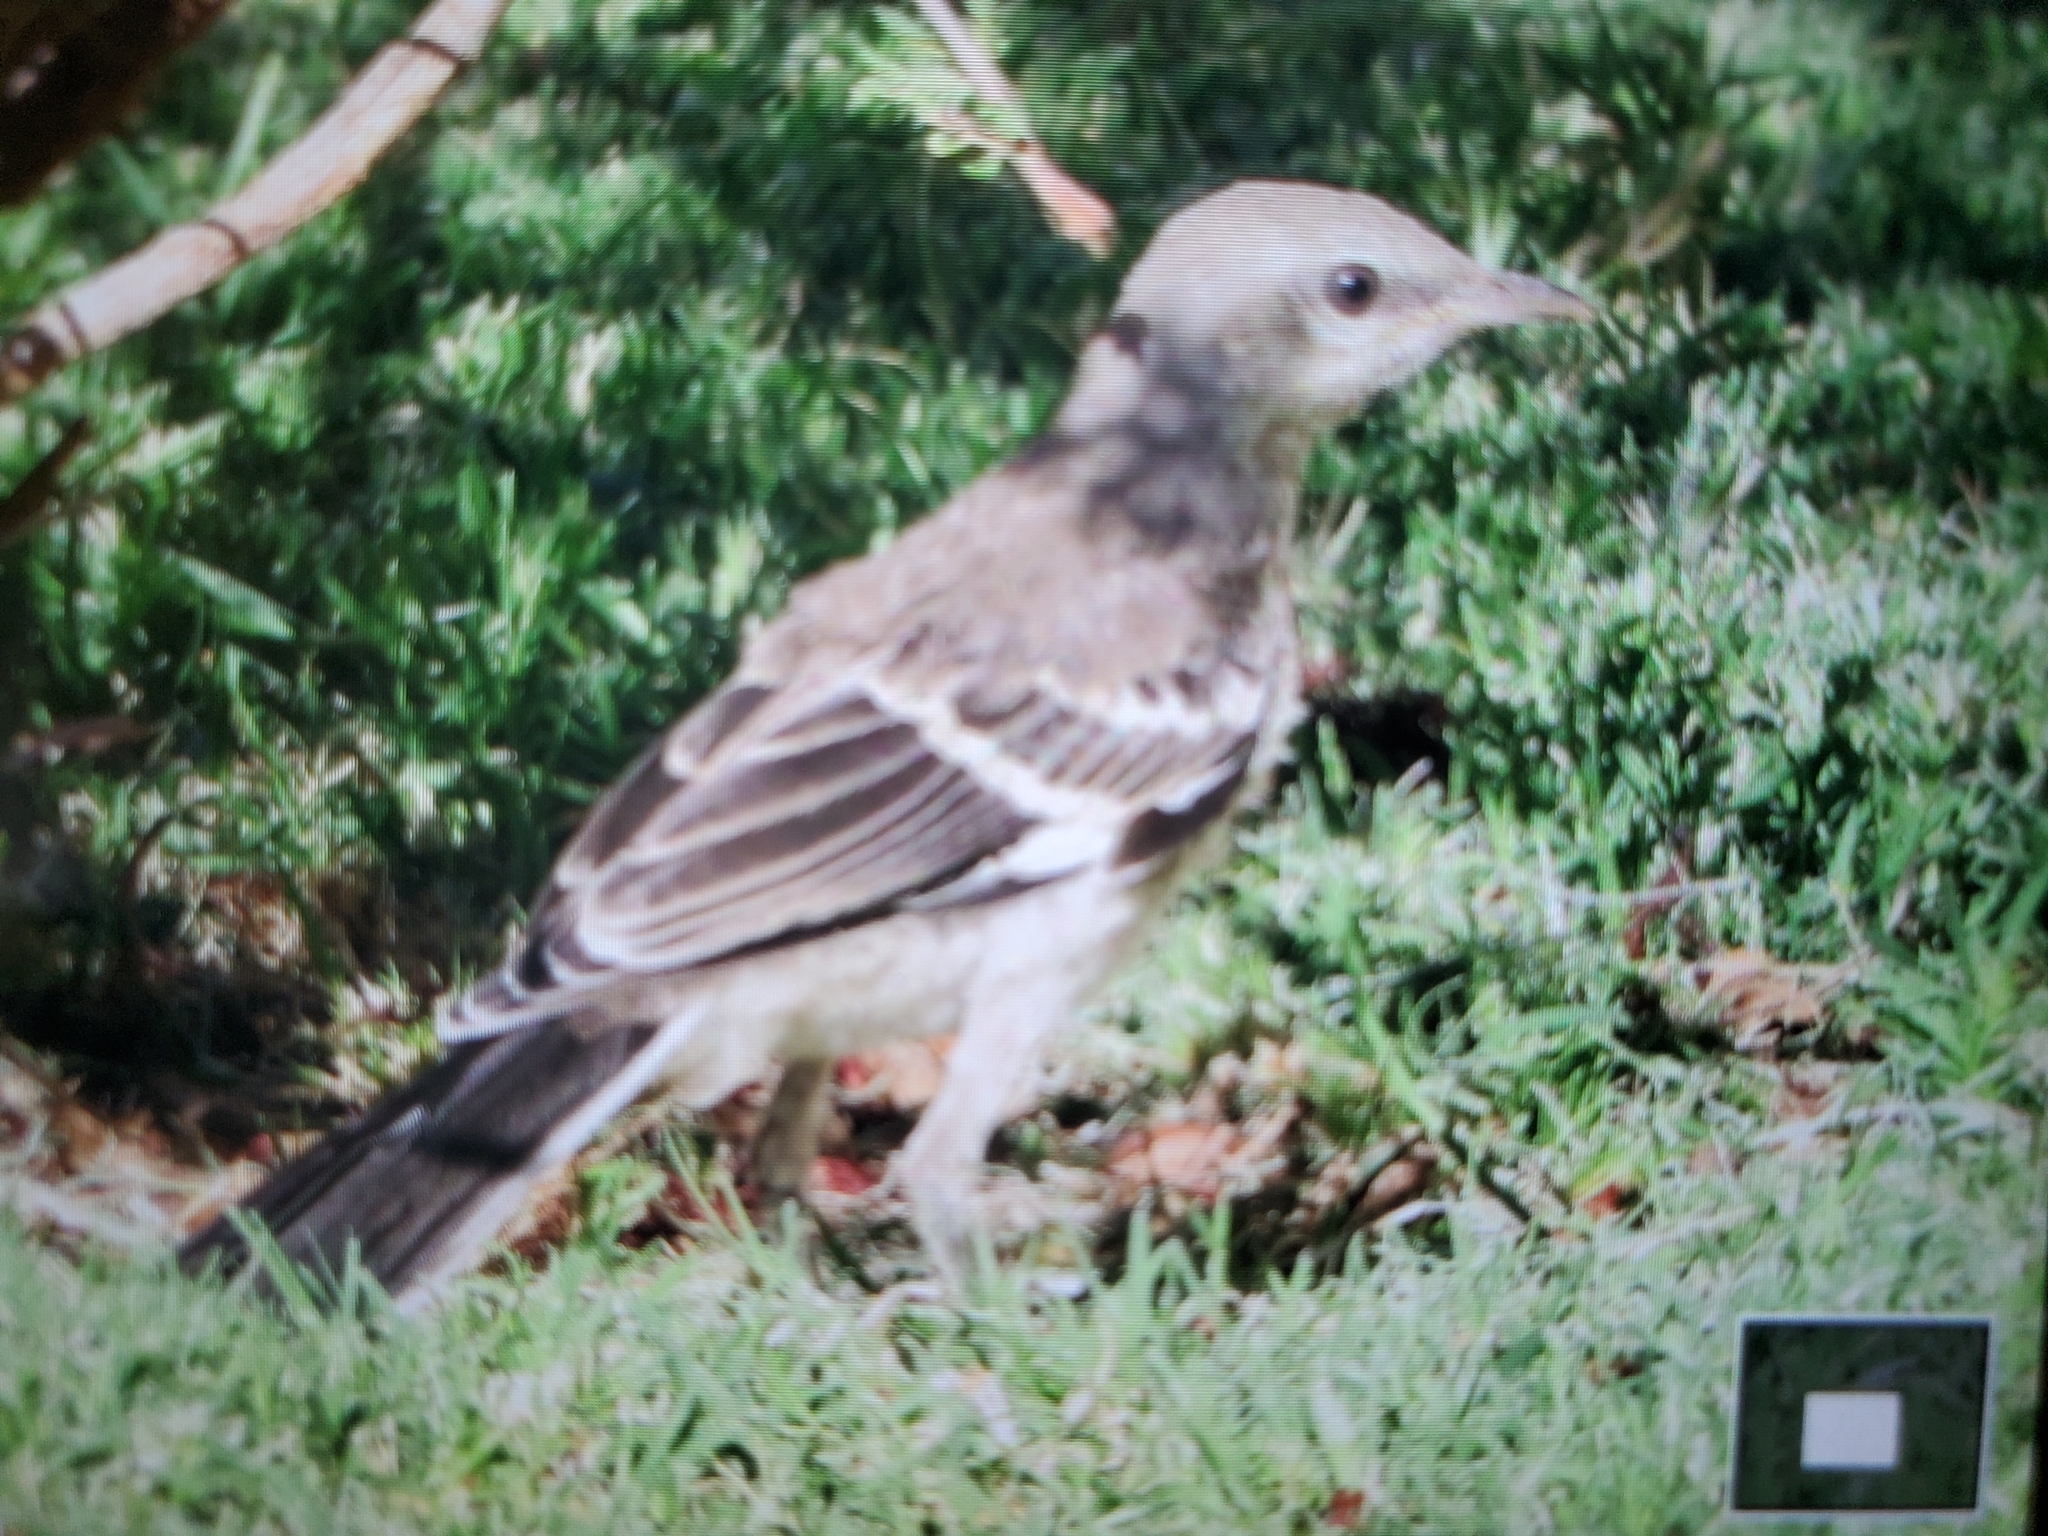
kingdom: Animalia
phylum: Chordata
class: Aves
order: Passeriformes
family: Mimidae
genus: Mimus
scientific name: Mimus polyglottos
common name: Northern mockingbird
